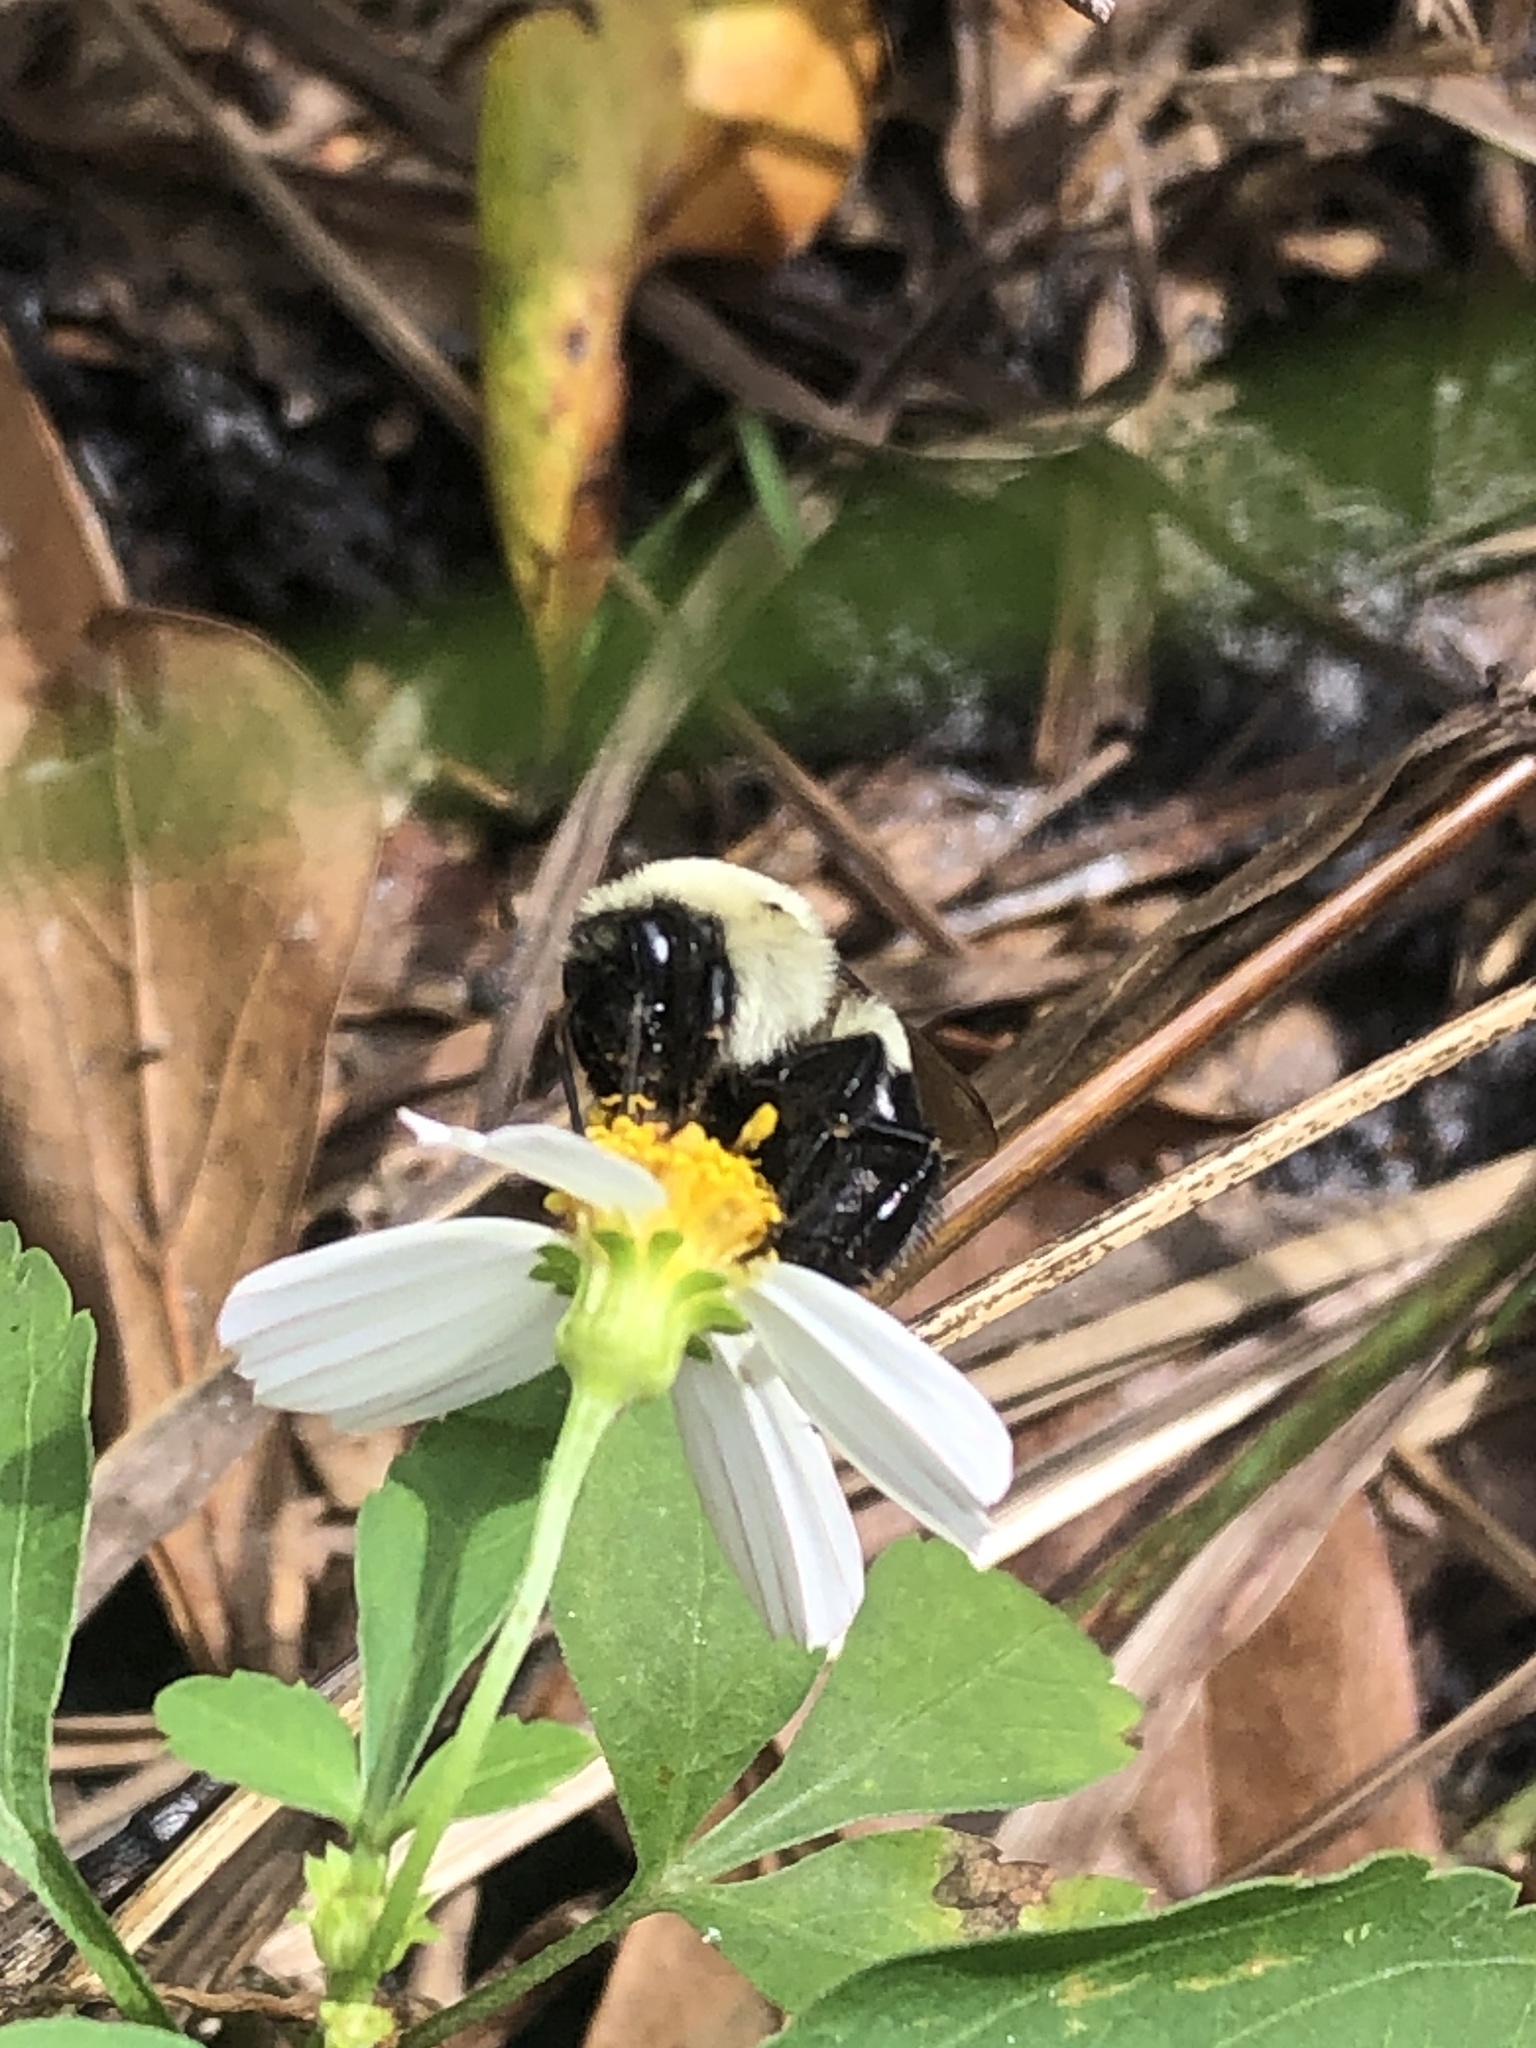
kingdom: Animalia
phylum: Arthropoda
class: Insecta
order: Hymenoptera
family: Apidae
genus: Bombus
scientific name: Bombus impatiens
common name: Common eastern bumble bee
